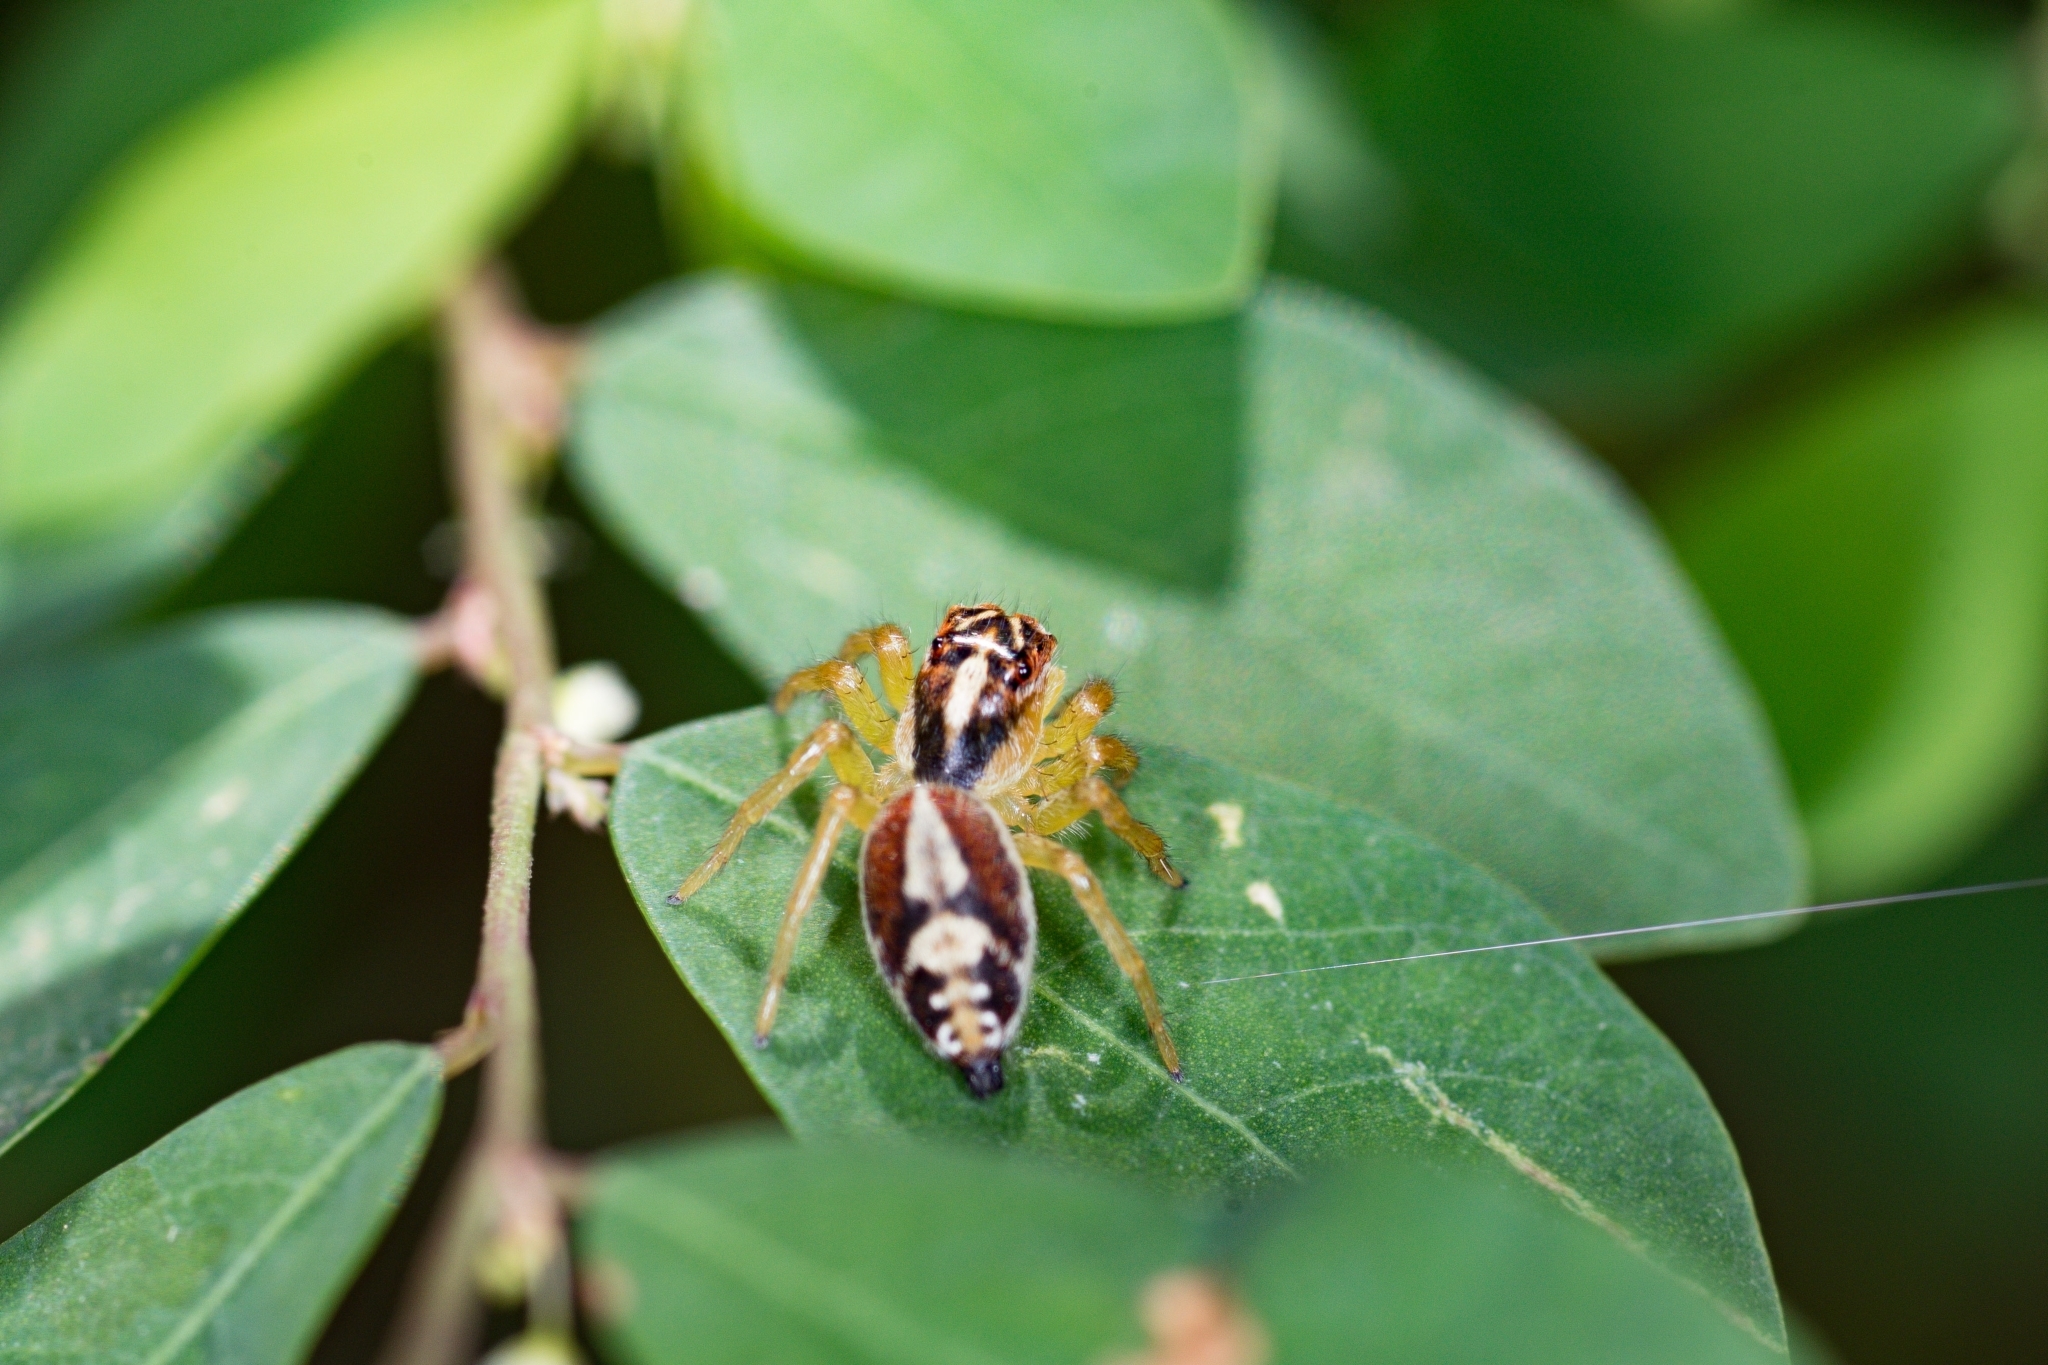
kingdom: Animalia
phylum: Arthropoda
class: Arachnida
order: Araneae
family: Salticidae
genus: Frigga
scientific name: Frigga quintensis
